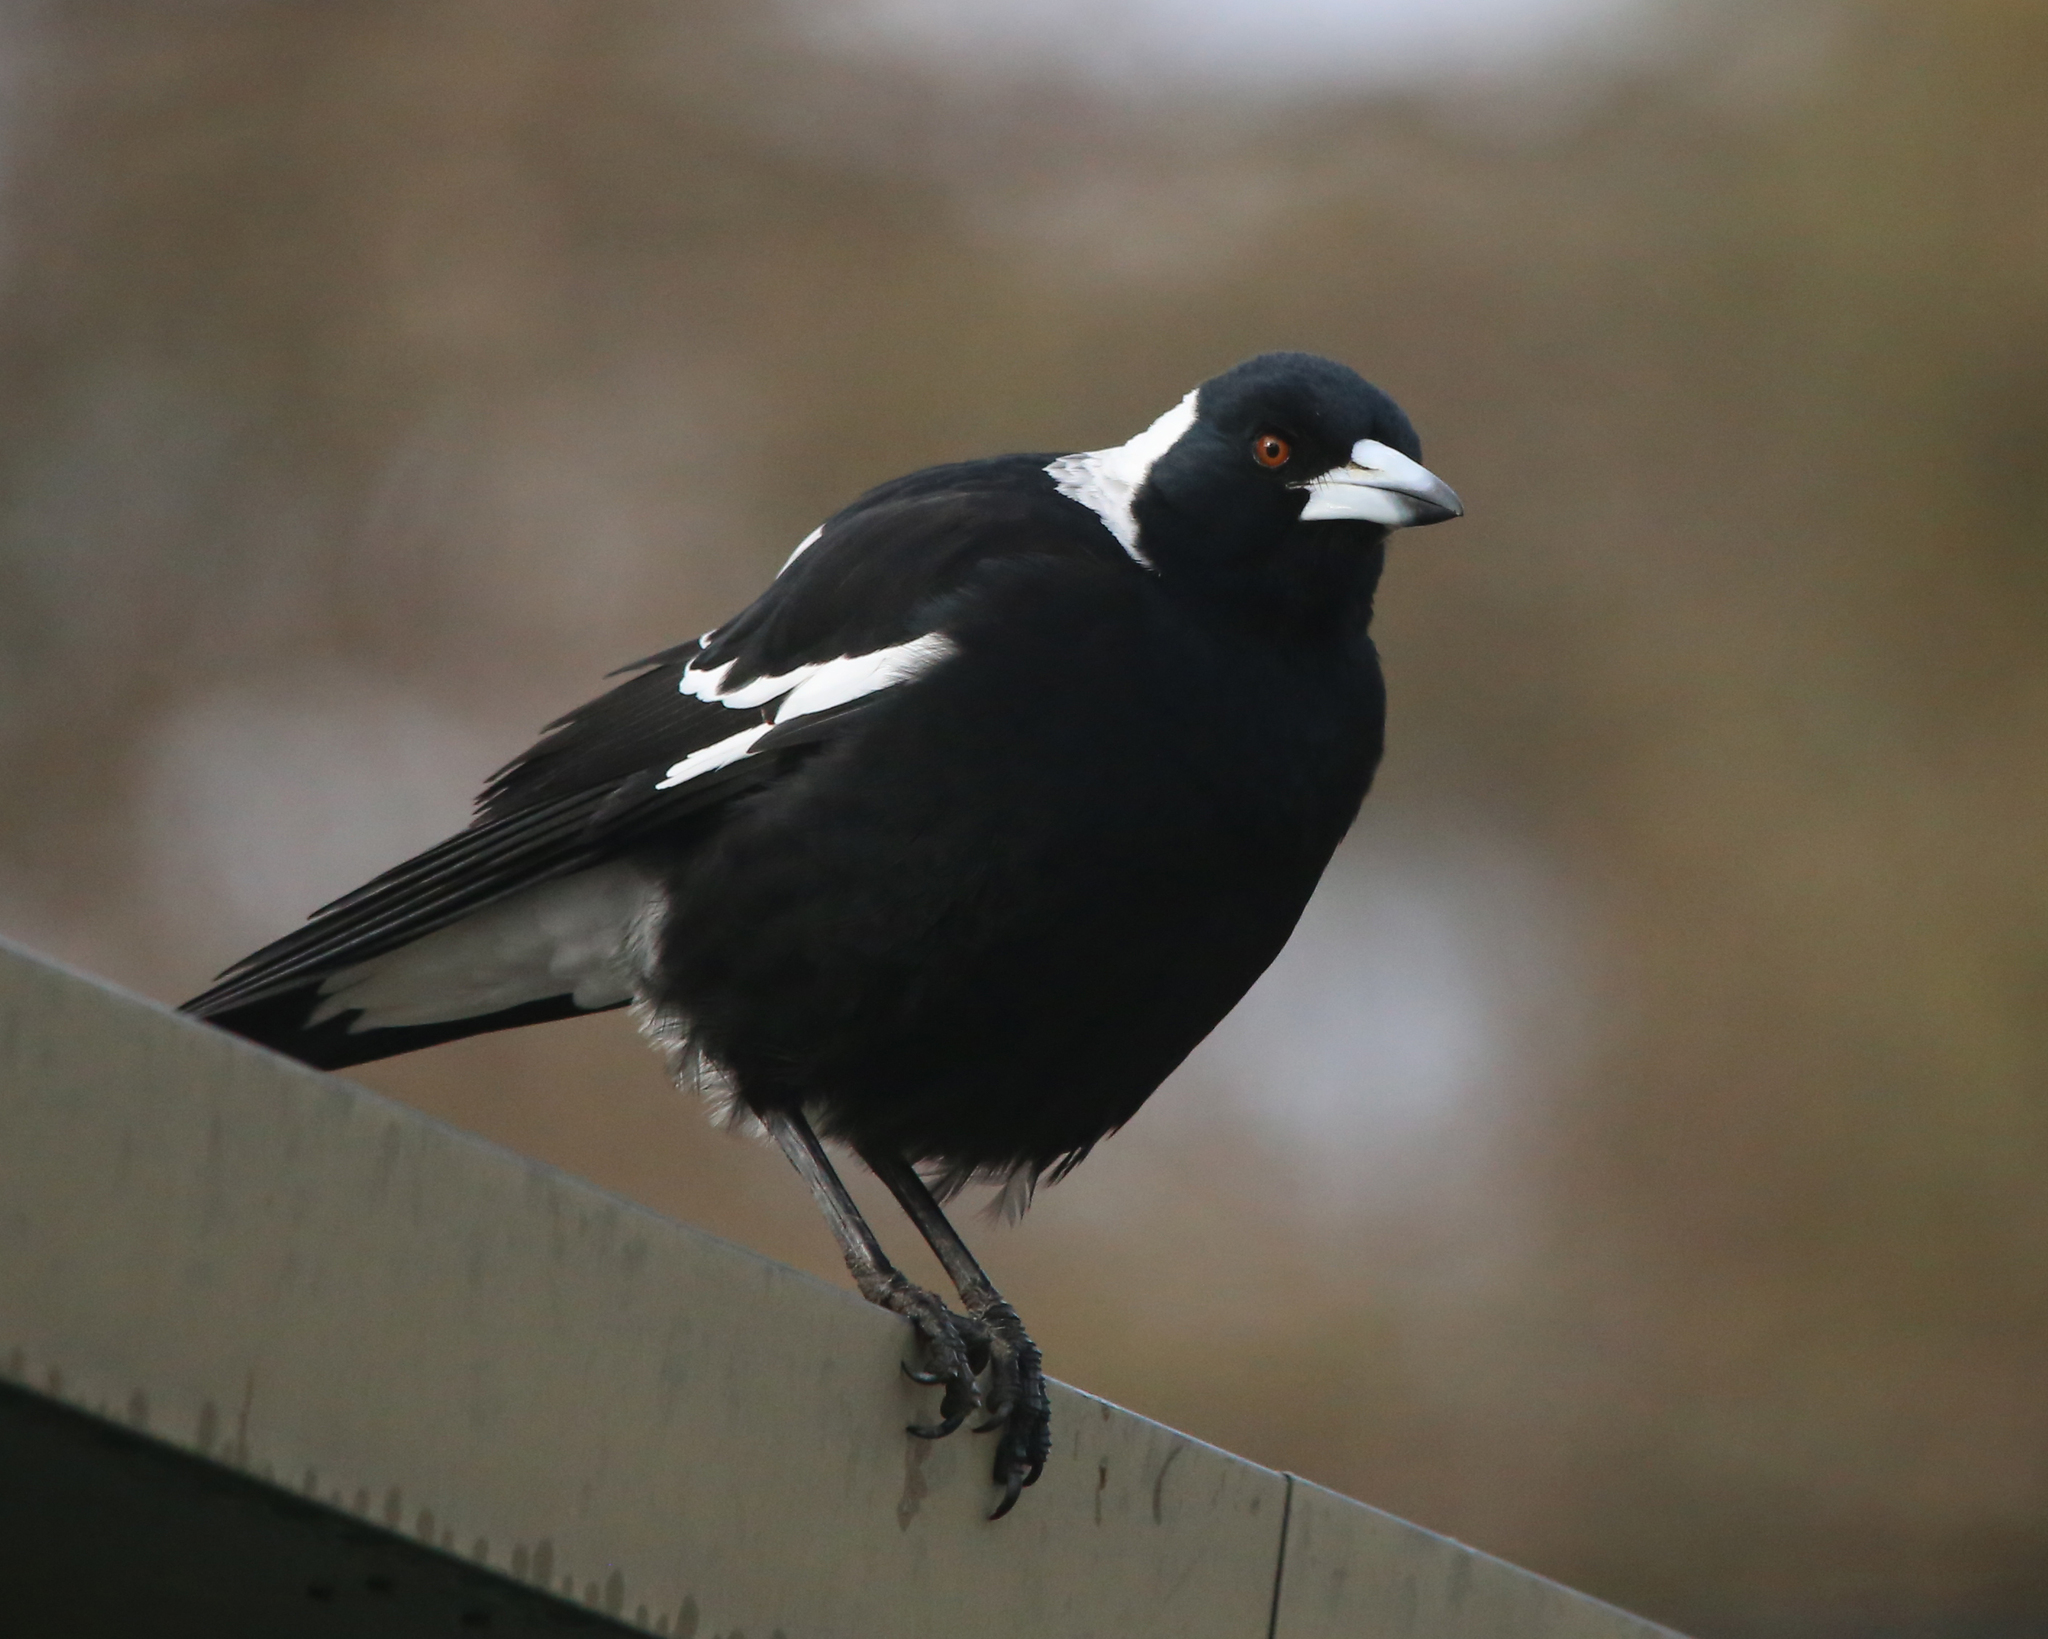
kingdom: Animalia
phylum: Chordata
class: Aves
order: Passeriformes
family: Cracticidae
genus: Gymnorhina
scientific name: Gymnorhina tibicen
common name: Australian magpie
